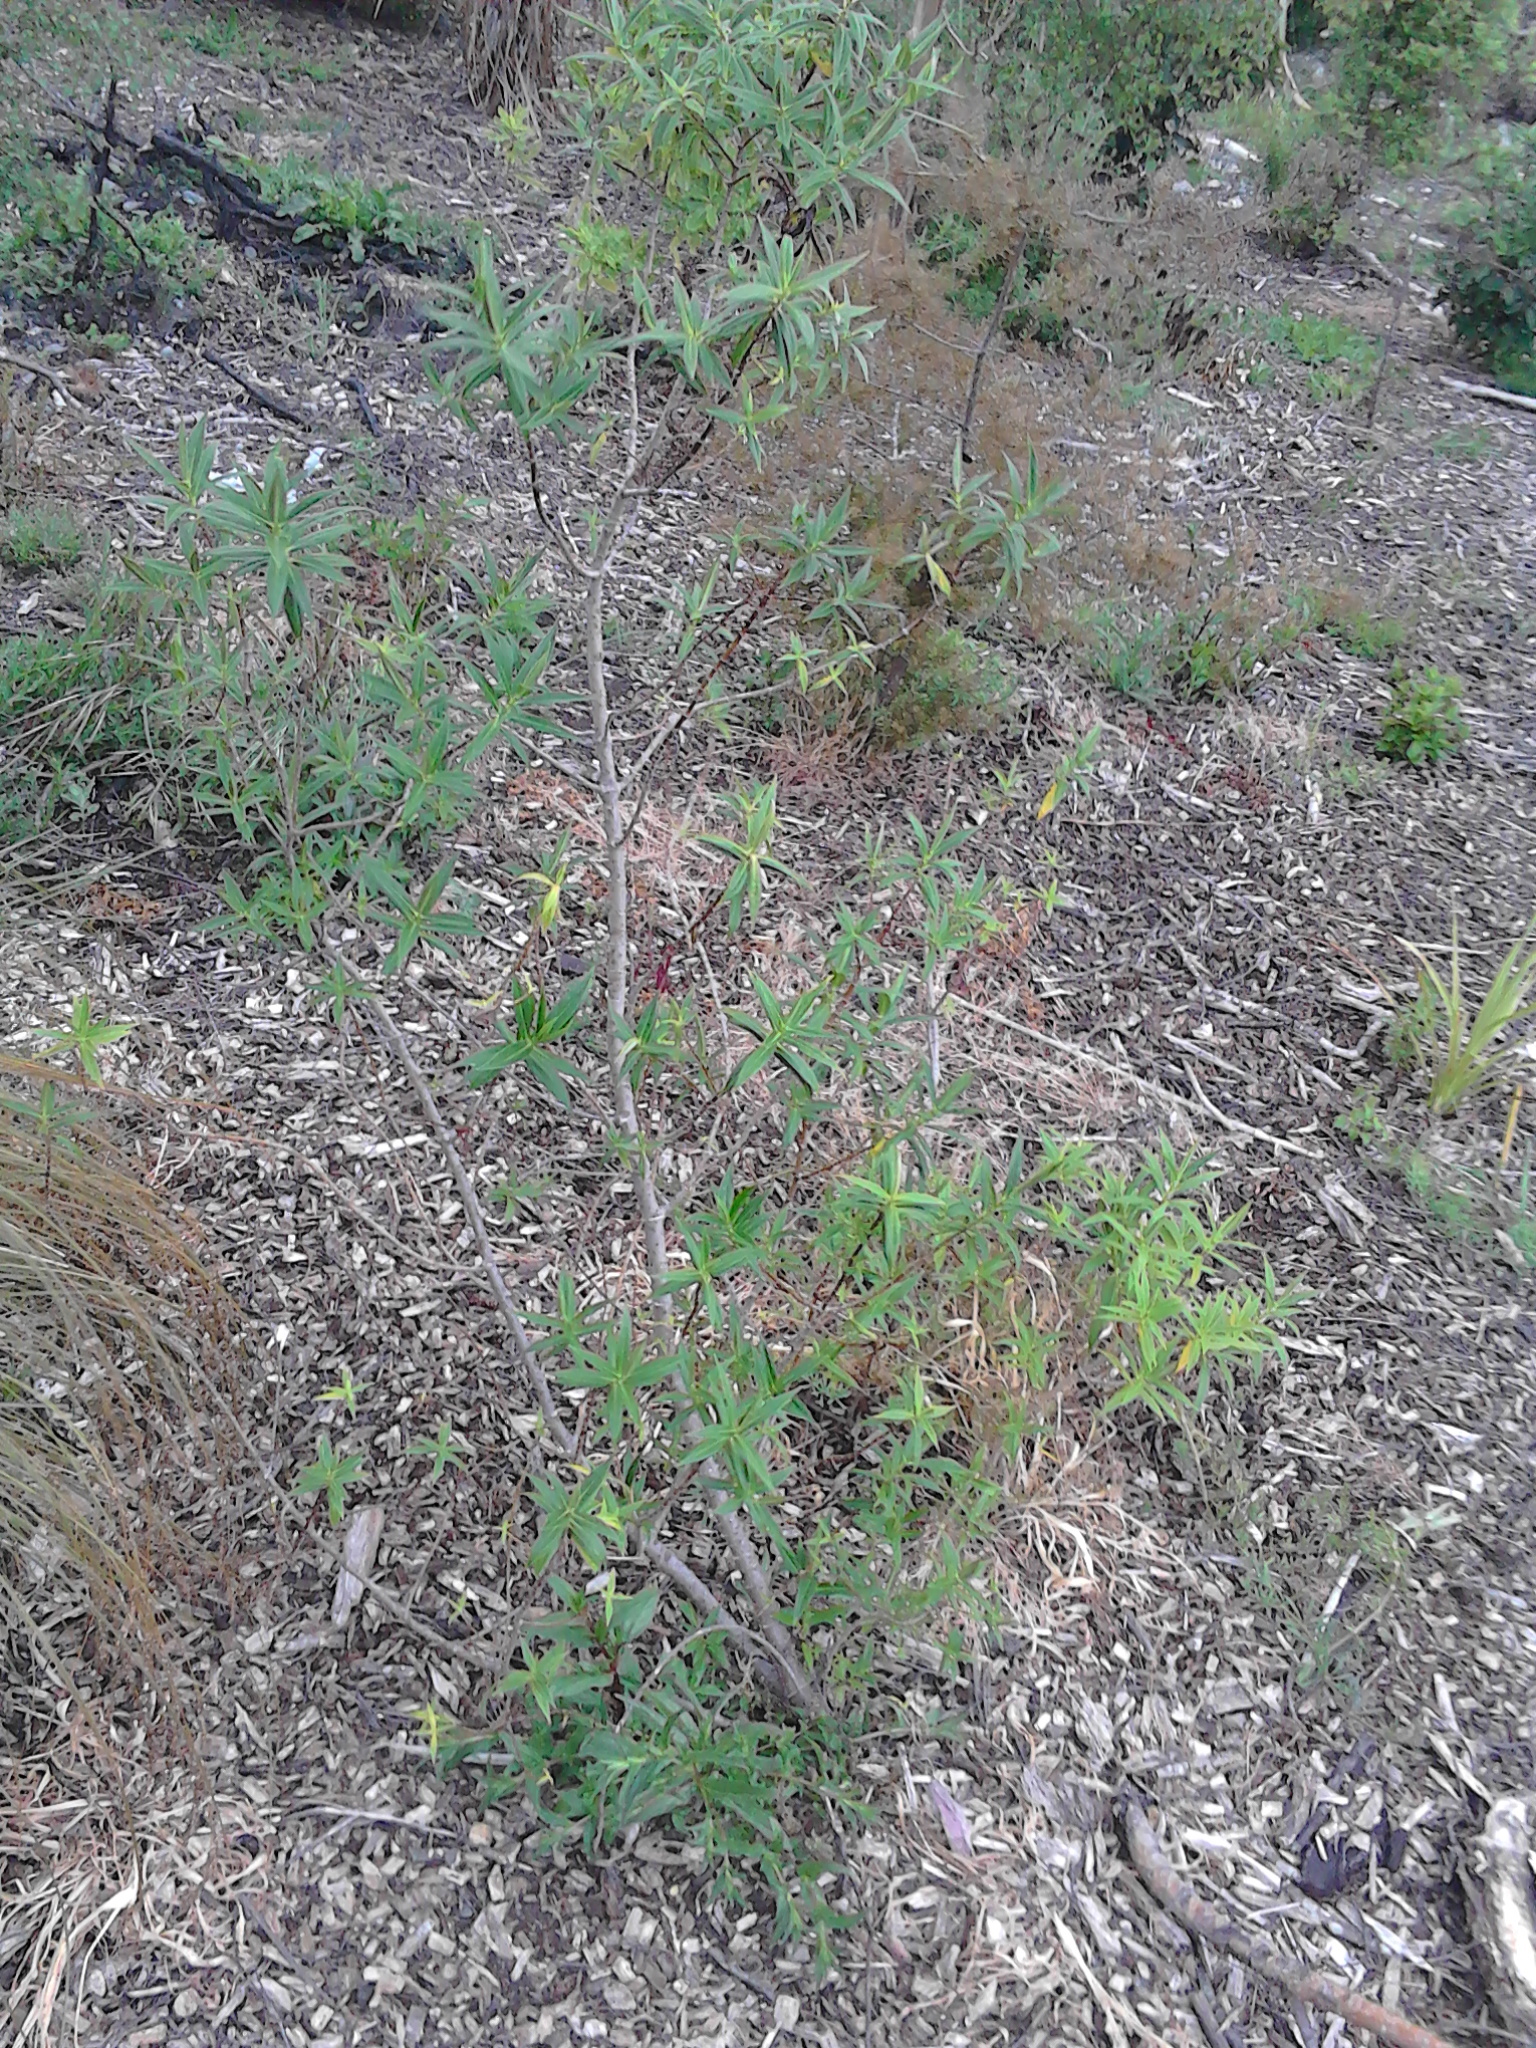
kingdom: Plantae
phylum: Tracheophyta
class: Magnoliopsida
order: Lamiales
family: Plantaginaceae
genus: Veronica
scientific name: Veronica salicifolia
